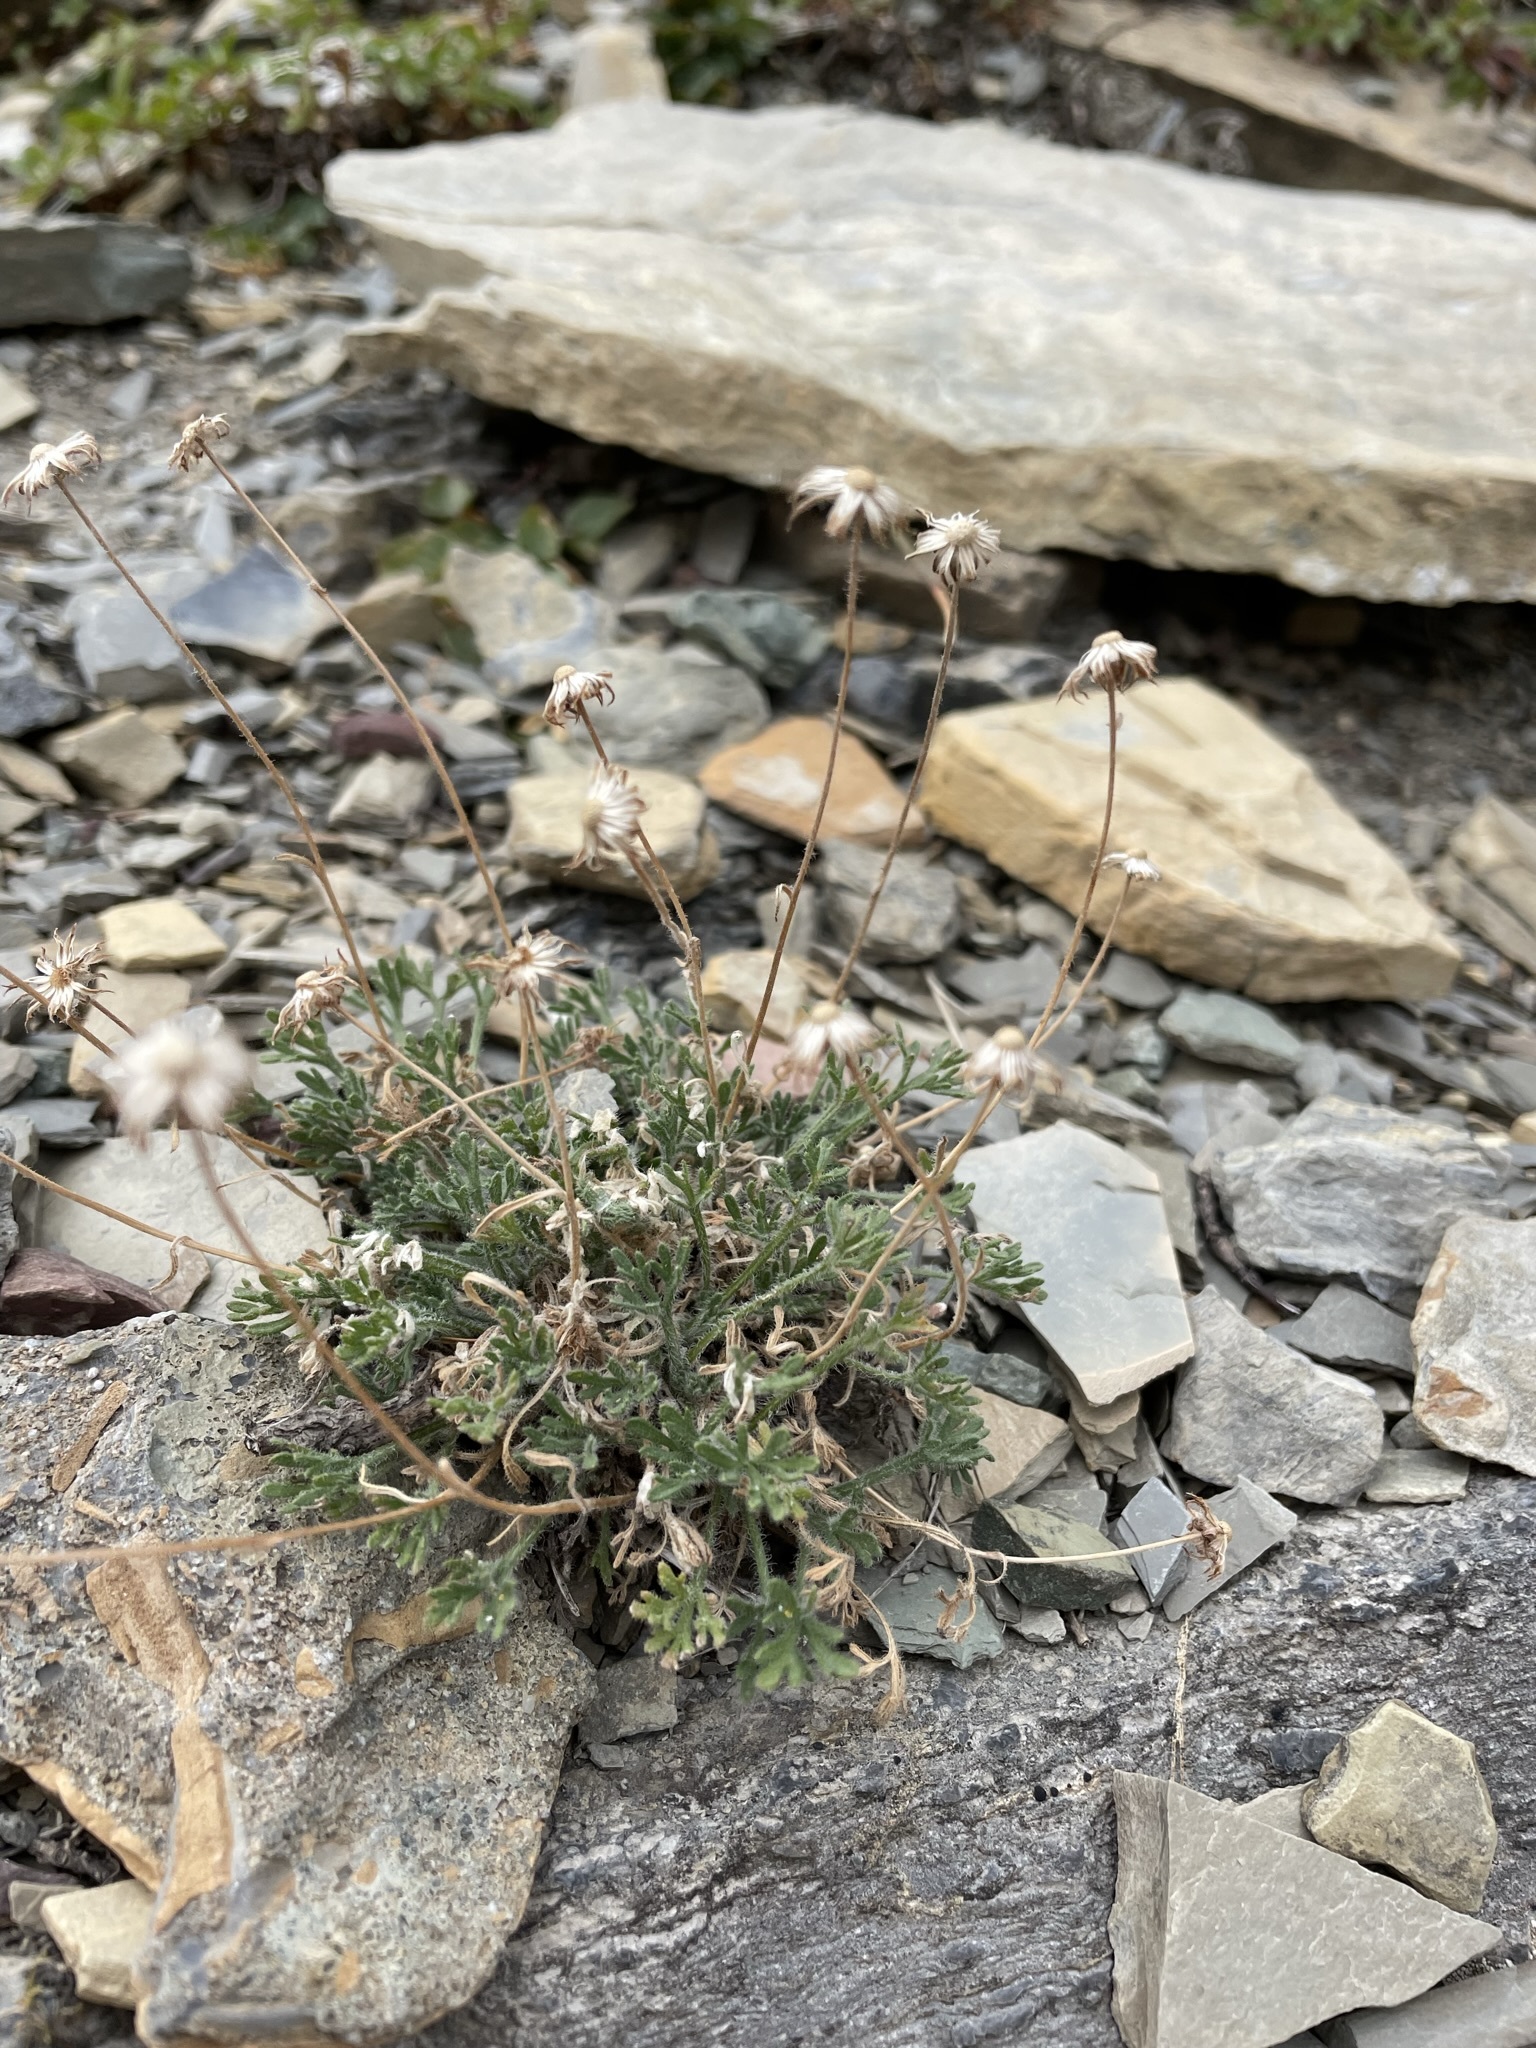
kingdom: Plantae
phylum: Tracheophyta
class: Magnoliopsida
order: Asterales
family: Asteraceae
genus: Erigeron
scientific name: Erigeron compositus
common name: Dwarf mountain fleabane
